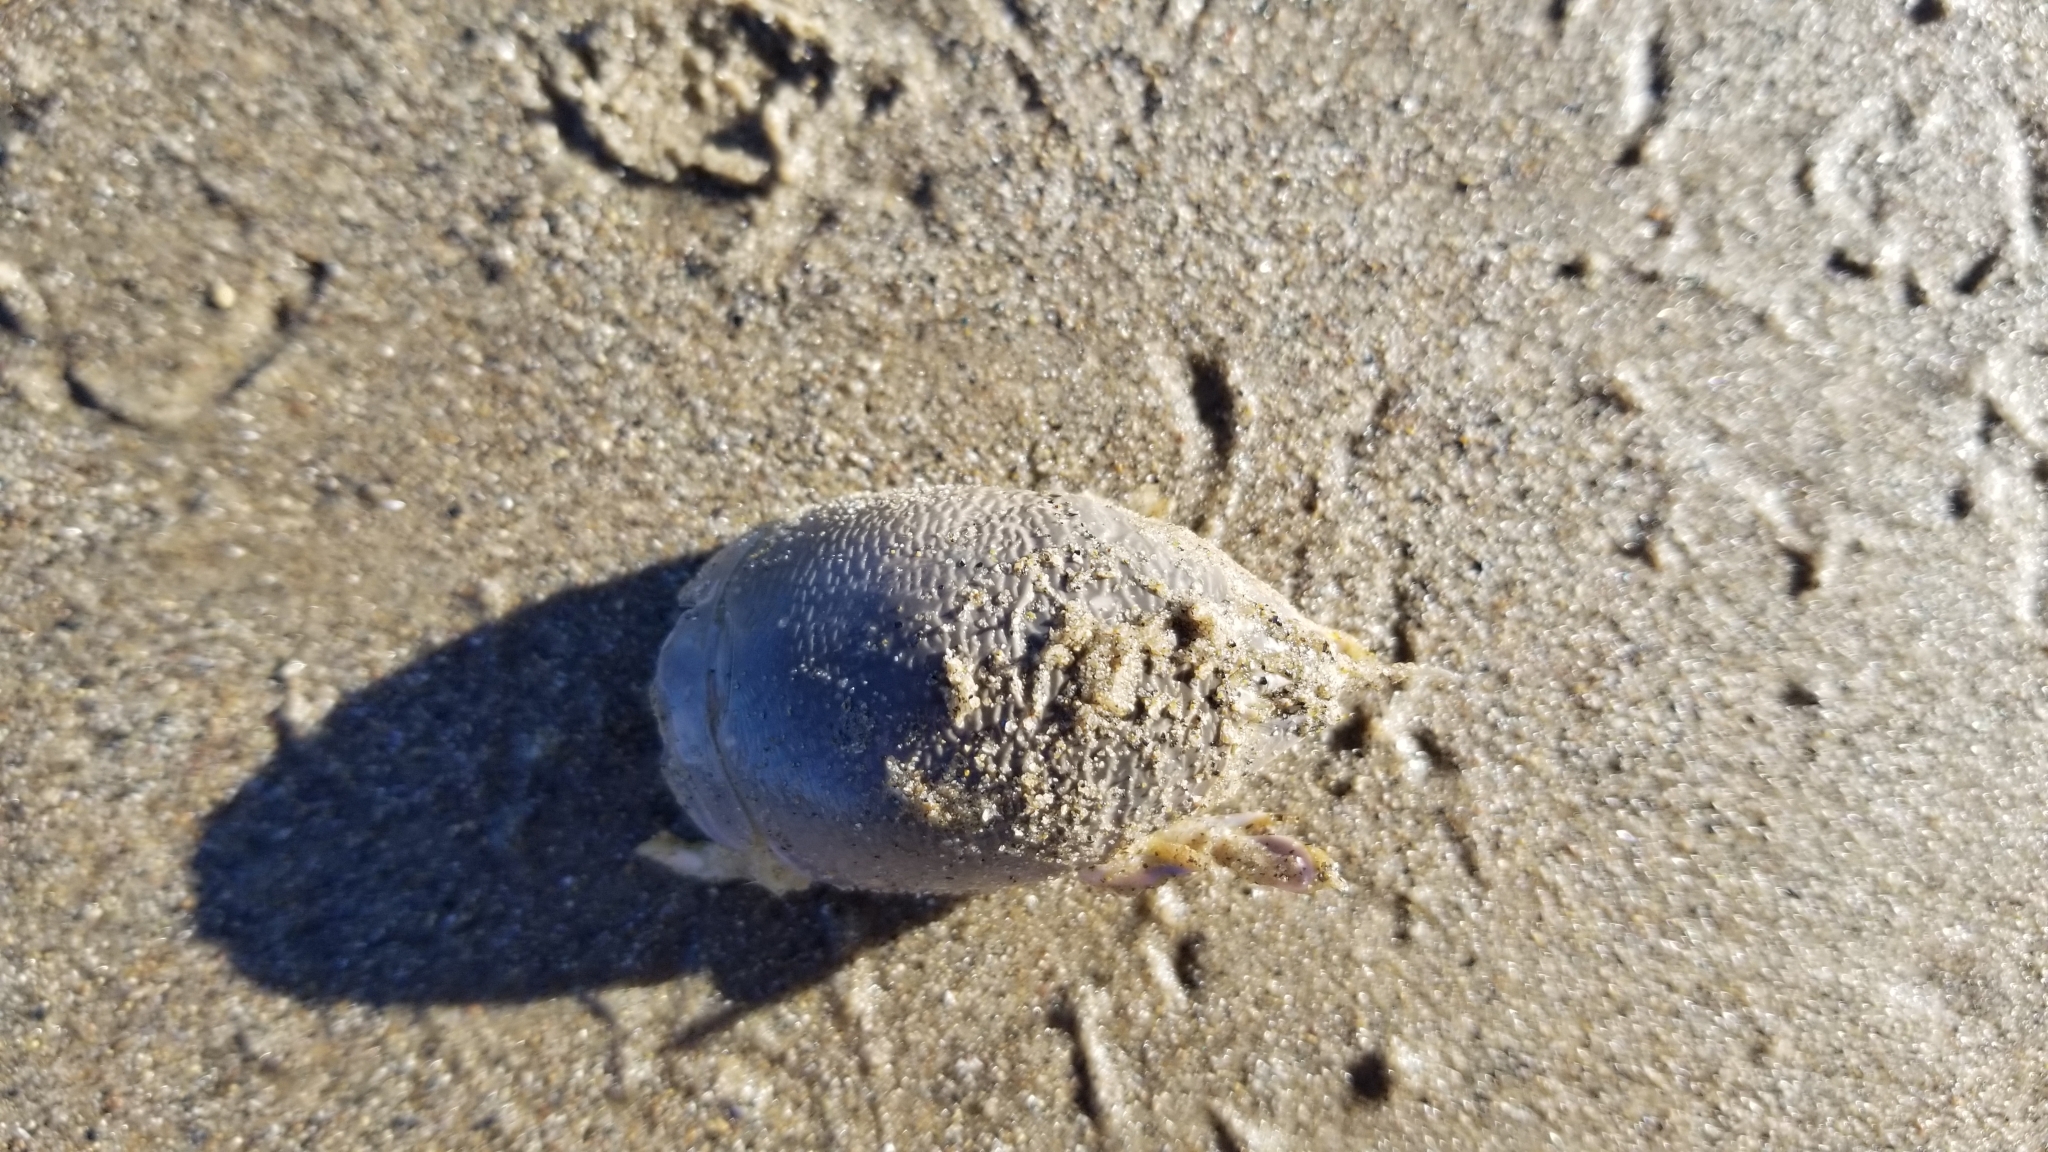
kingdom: Animalia
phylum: Arthropoda
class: Malacostraca
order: Decapoda
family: Hippidae
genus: Emerita
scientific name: Emerita analoga
